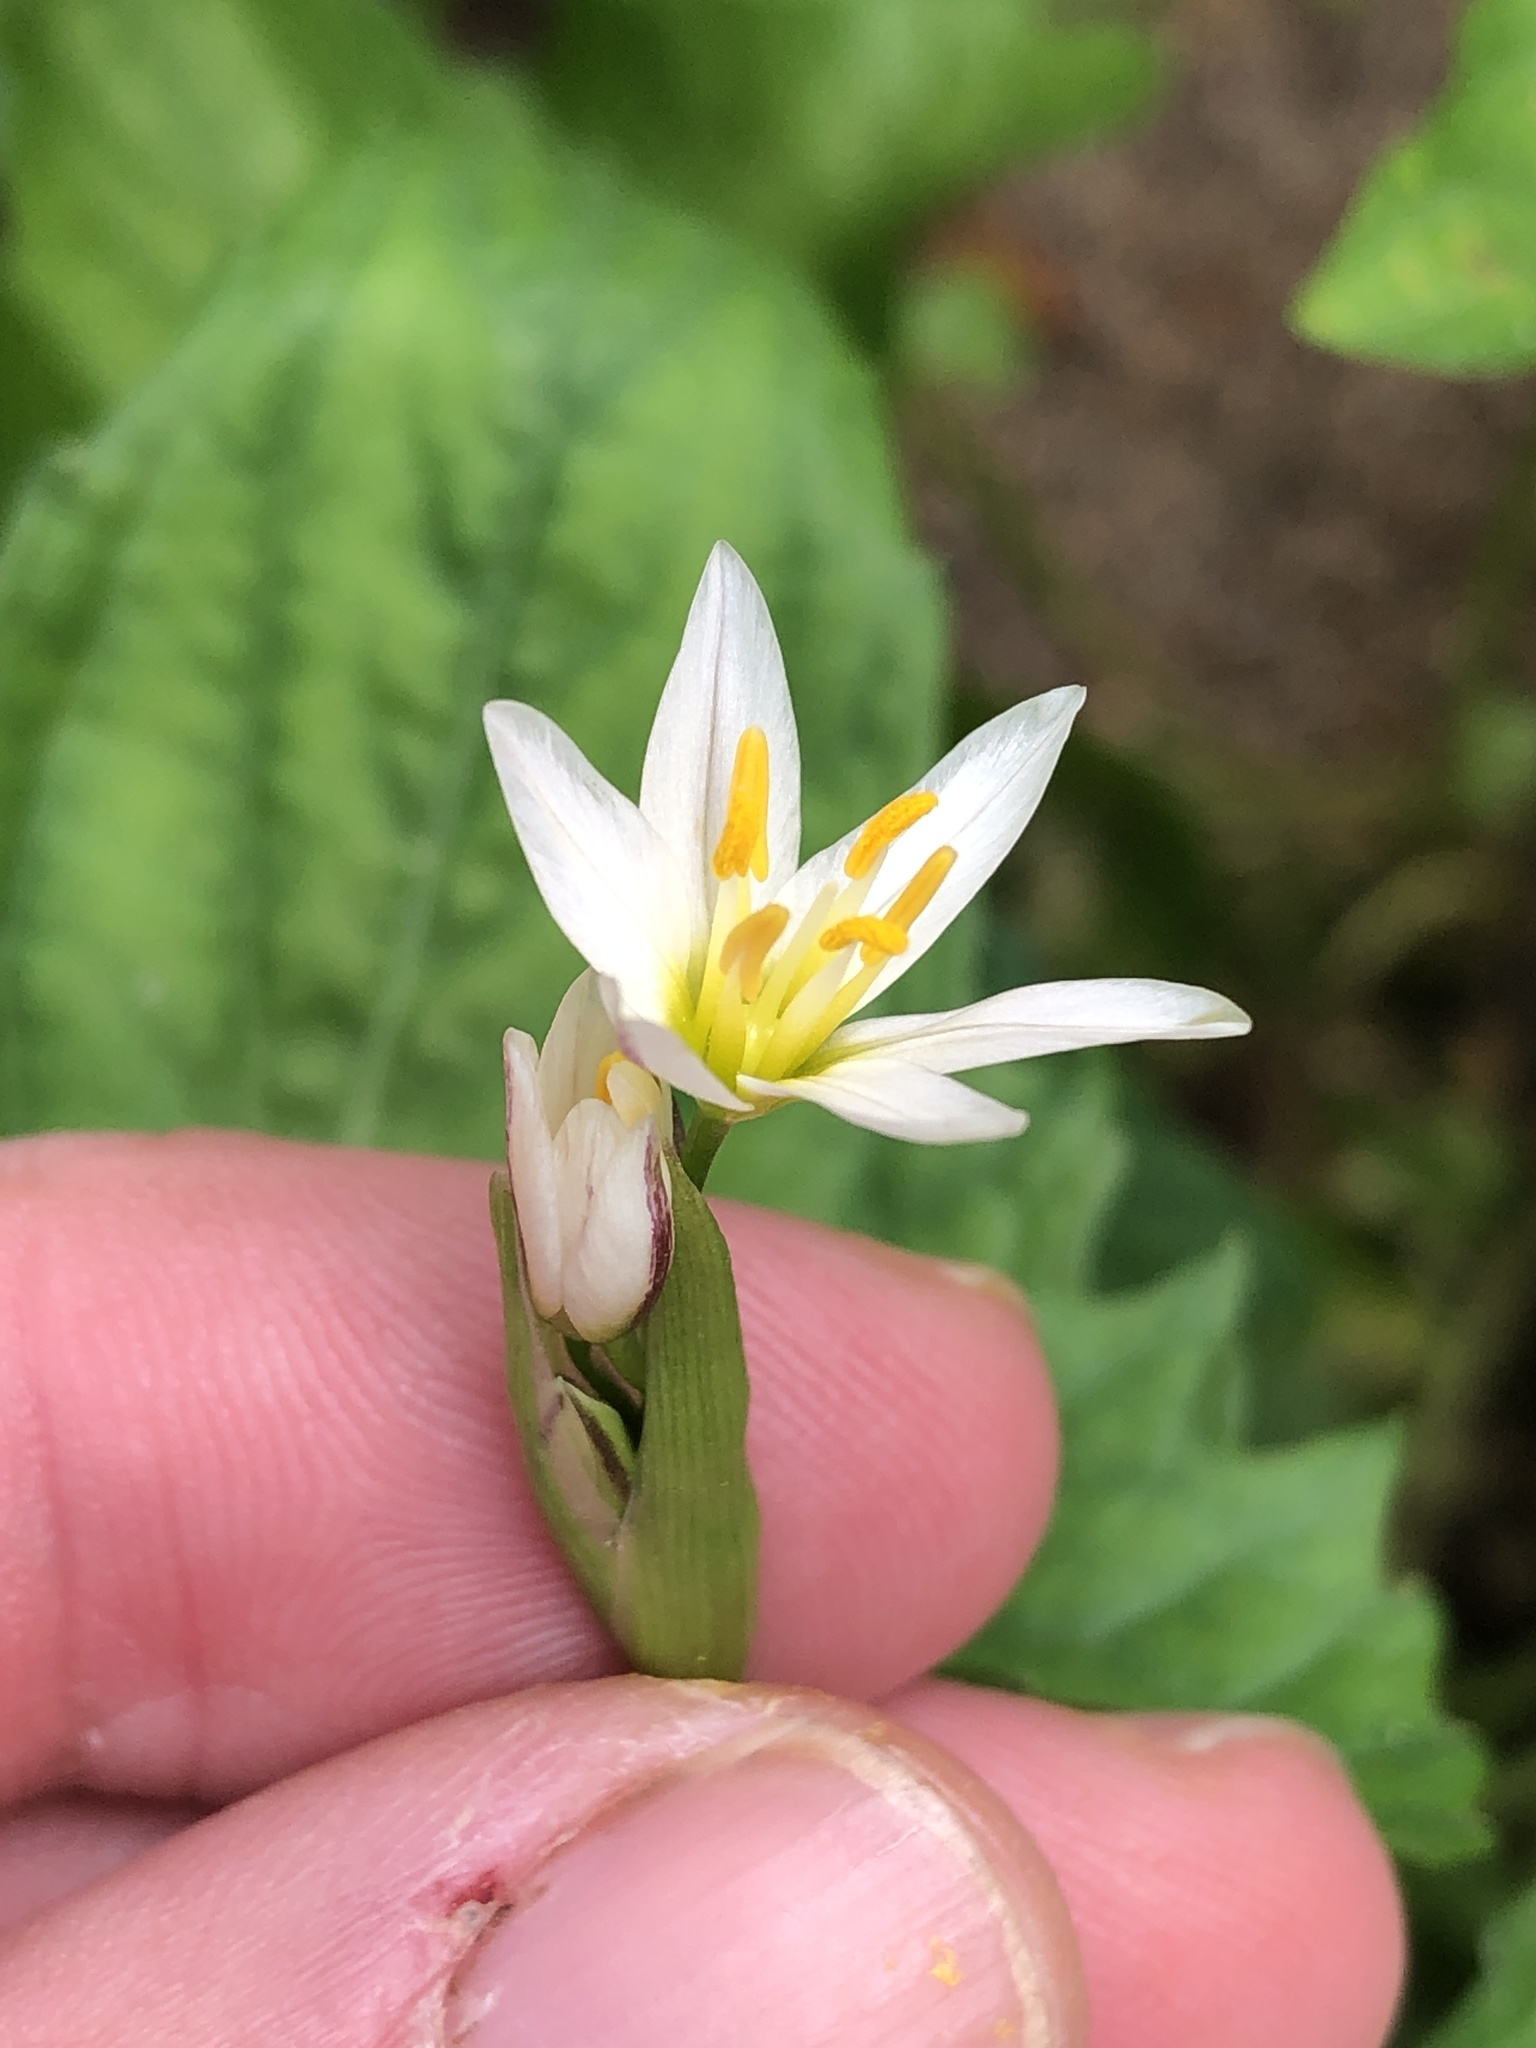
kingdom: Plantae
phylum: Tracheophyta
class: Liliopsida
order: Asparagales
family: Amaryllidaceae
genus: Nothoscordum
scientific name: Nothoscordum bivalve
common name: Crow-poison
